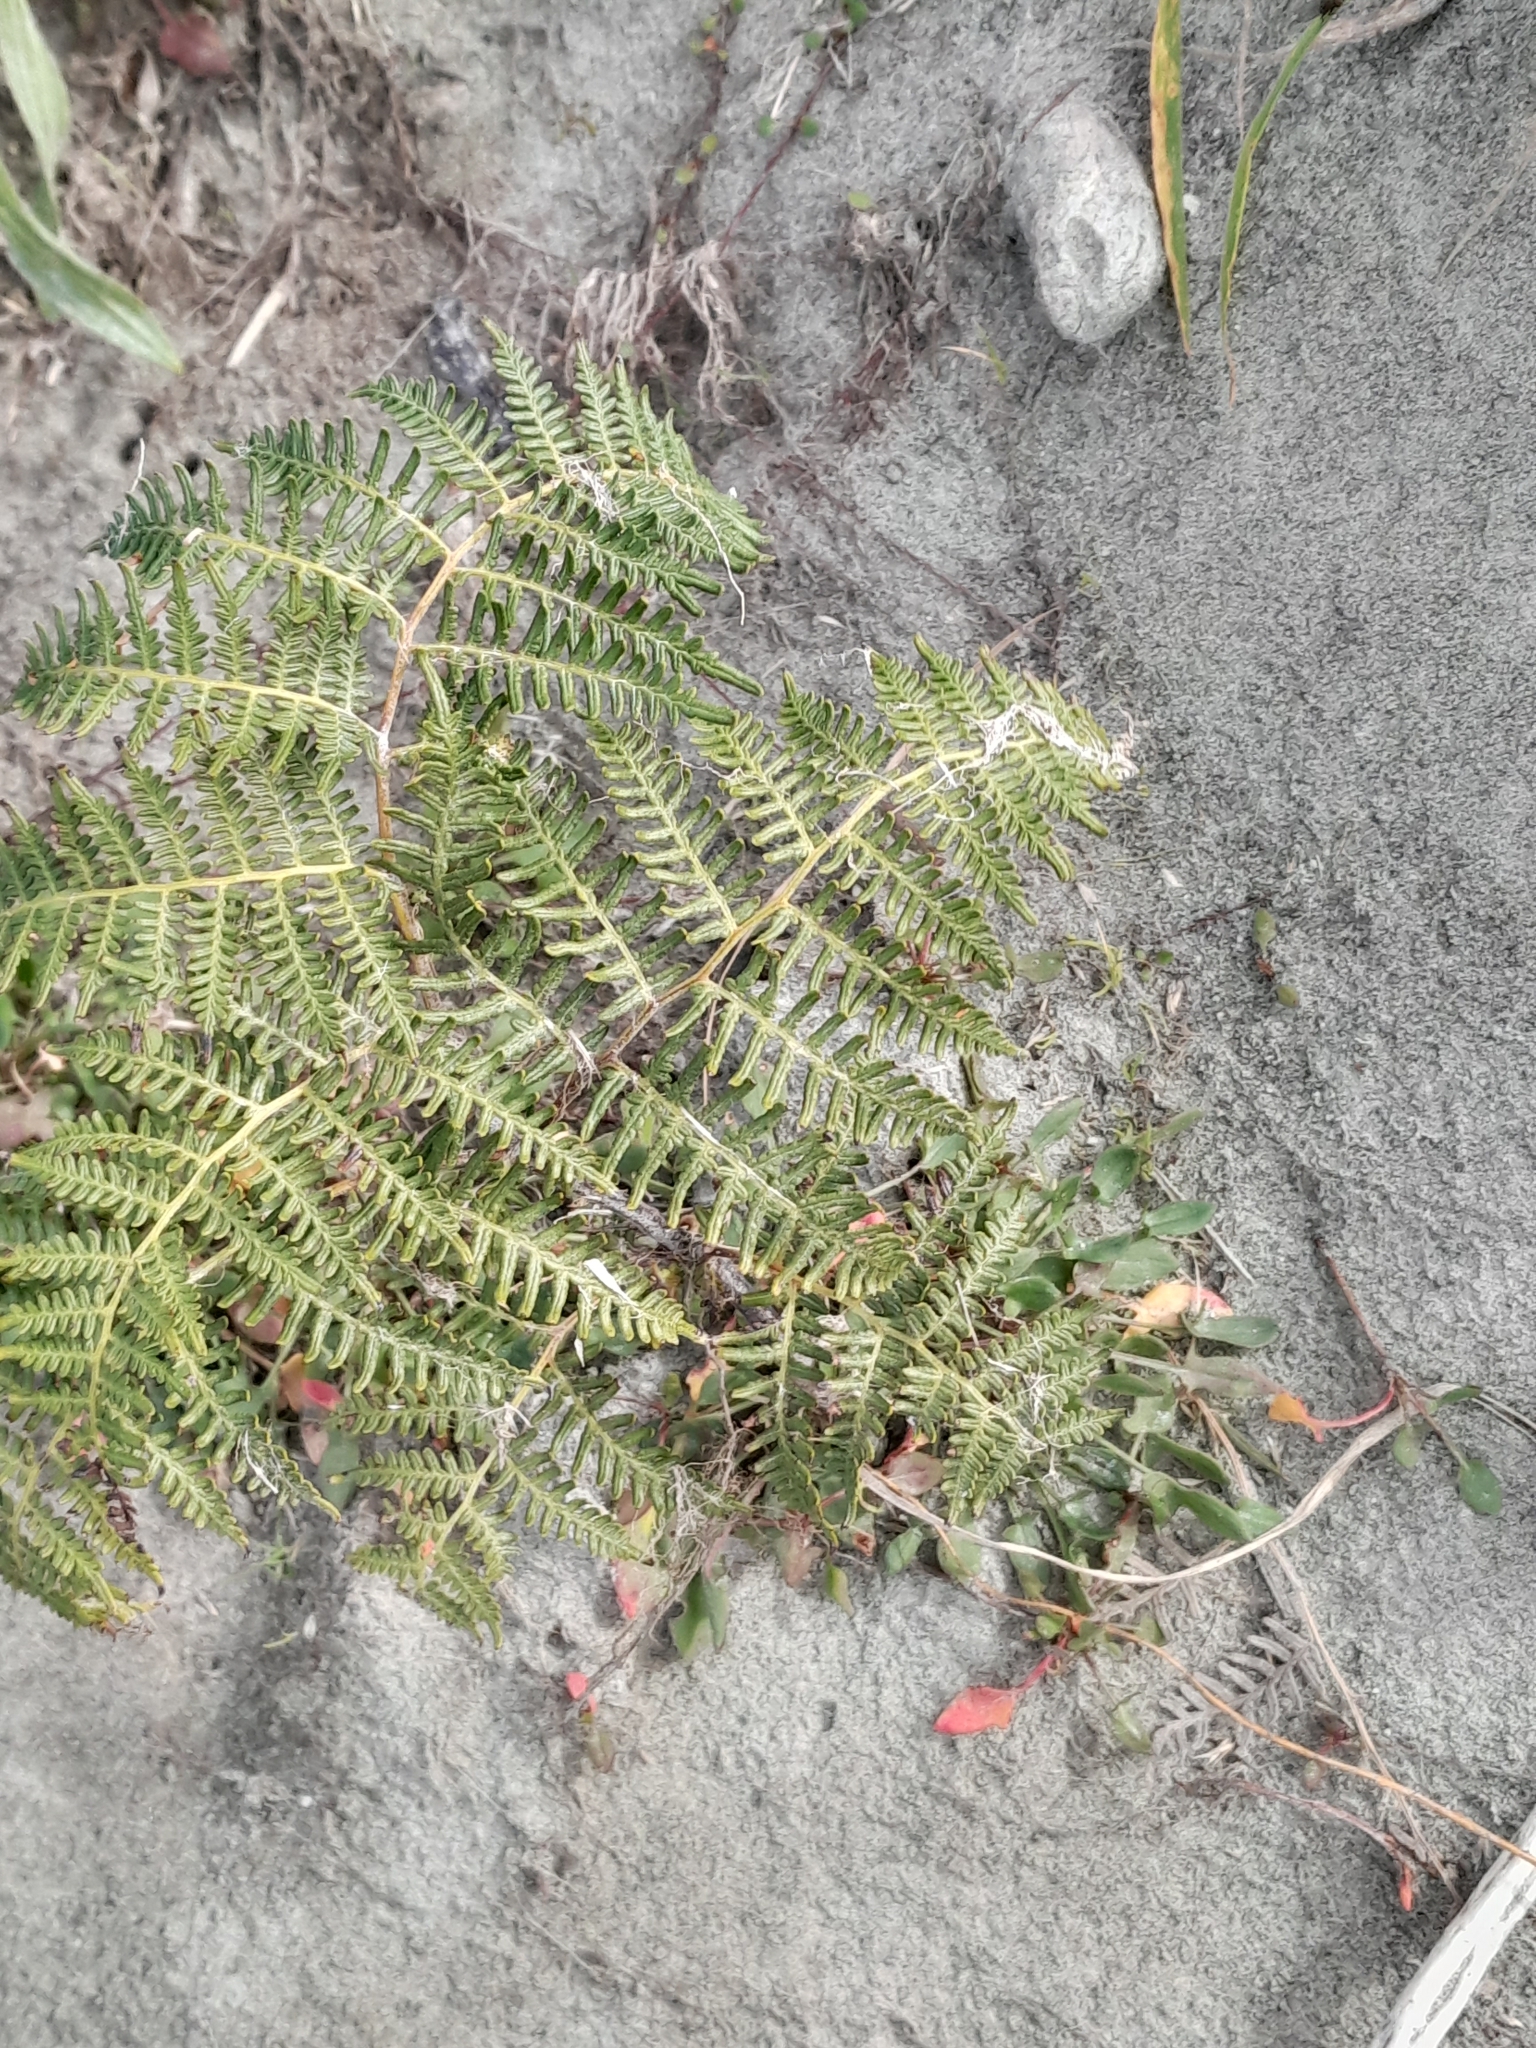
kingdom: Plantae
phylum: Tracheophyta
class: Polypodiopsida
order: Polypodiales
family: Dennstaedtiaceae
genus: Pteridium
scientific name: Pteridium esculentum
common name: Bracken fern
